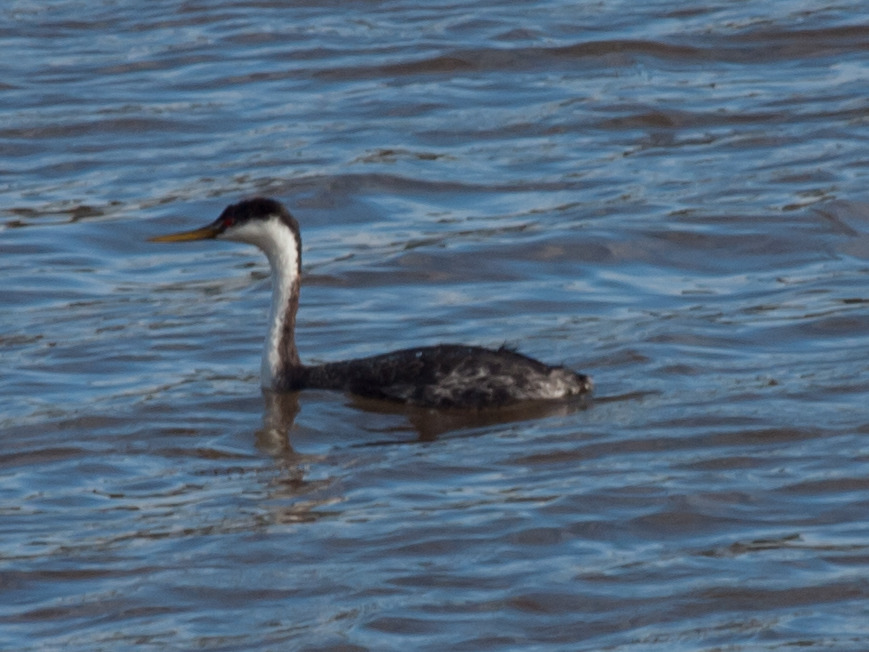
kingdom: Animalia
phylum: Chordata
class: Aves
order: Podicipediformes
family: Podicipedidae
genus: Aechmophorus
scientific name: Aechmophorus occidentalis
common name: Western grebe
